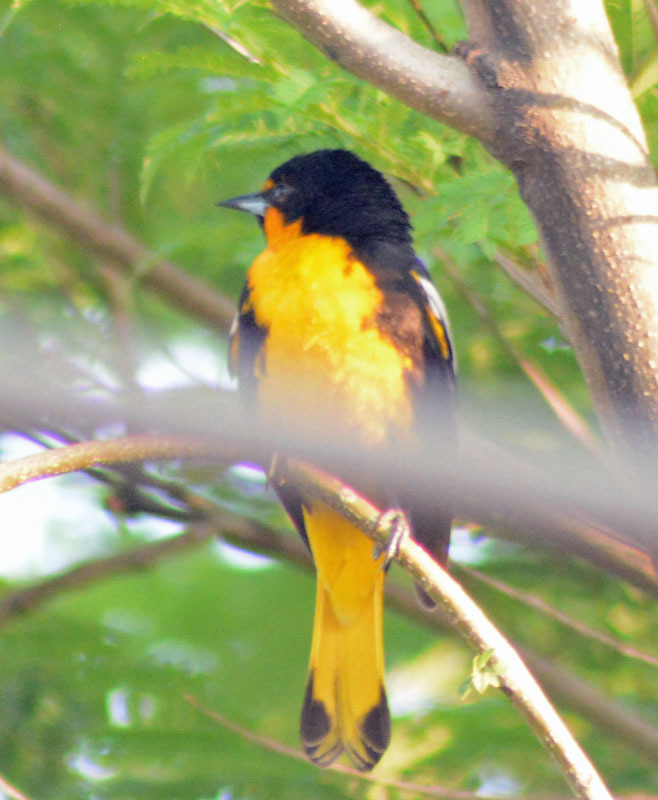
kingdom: Animalia
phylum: Chordata
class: Aves
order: Passeriformes
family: Icteridae
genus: Icterus
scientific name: Icterus abeillei
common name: Black-backed oriole
